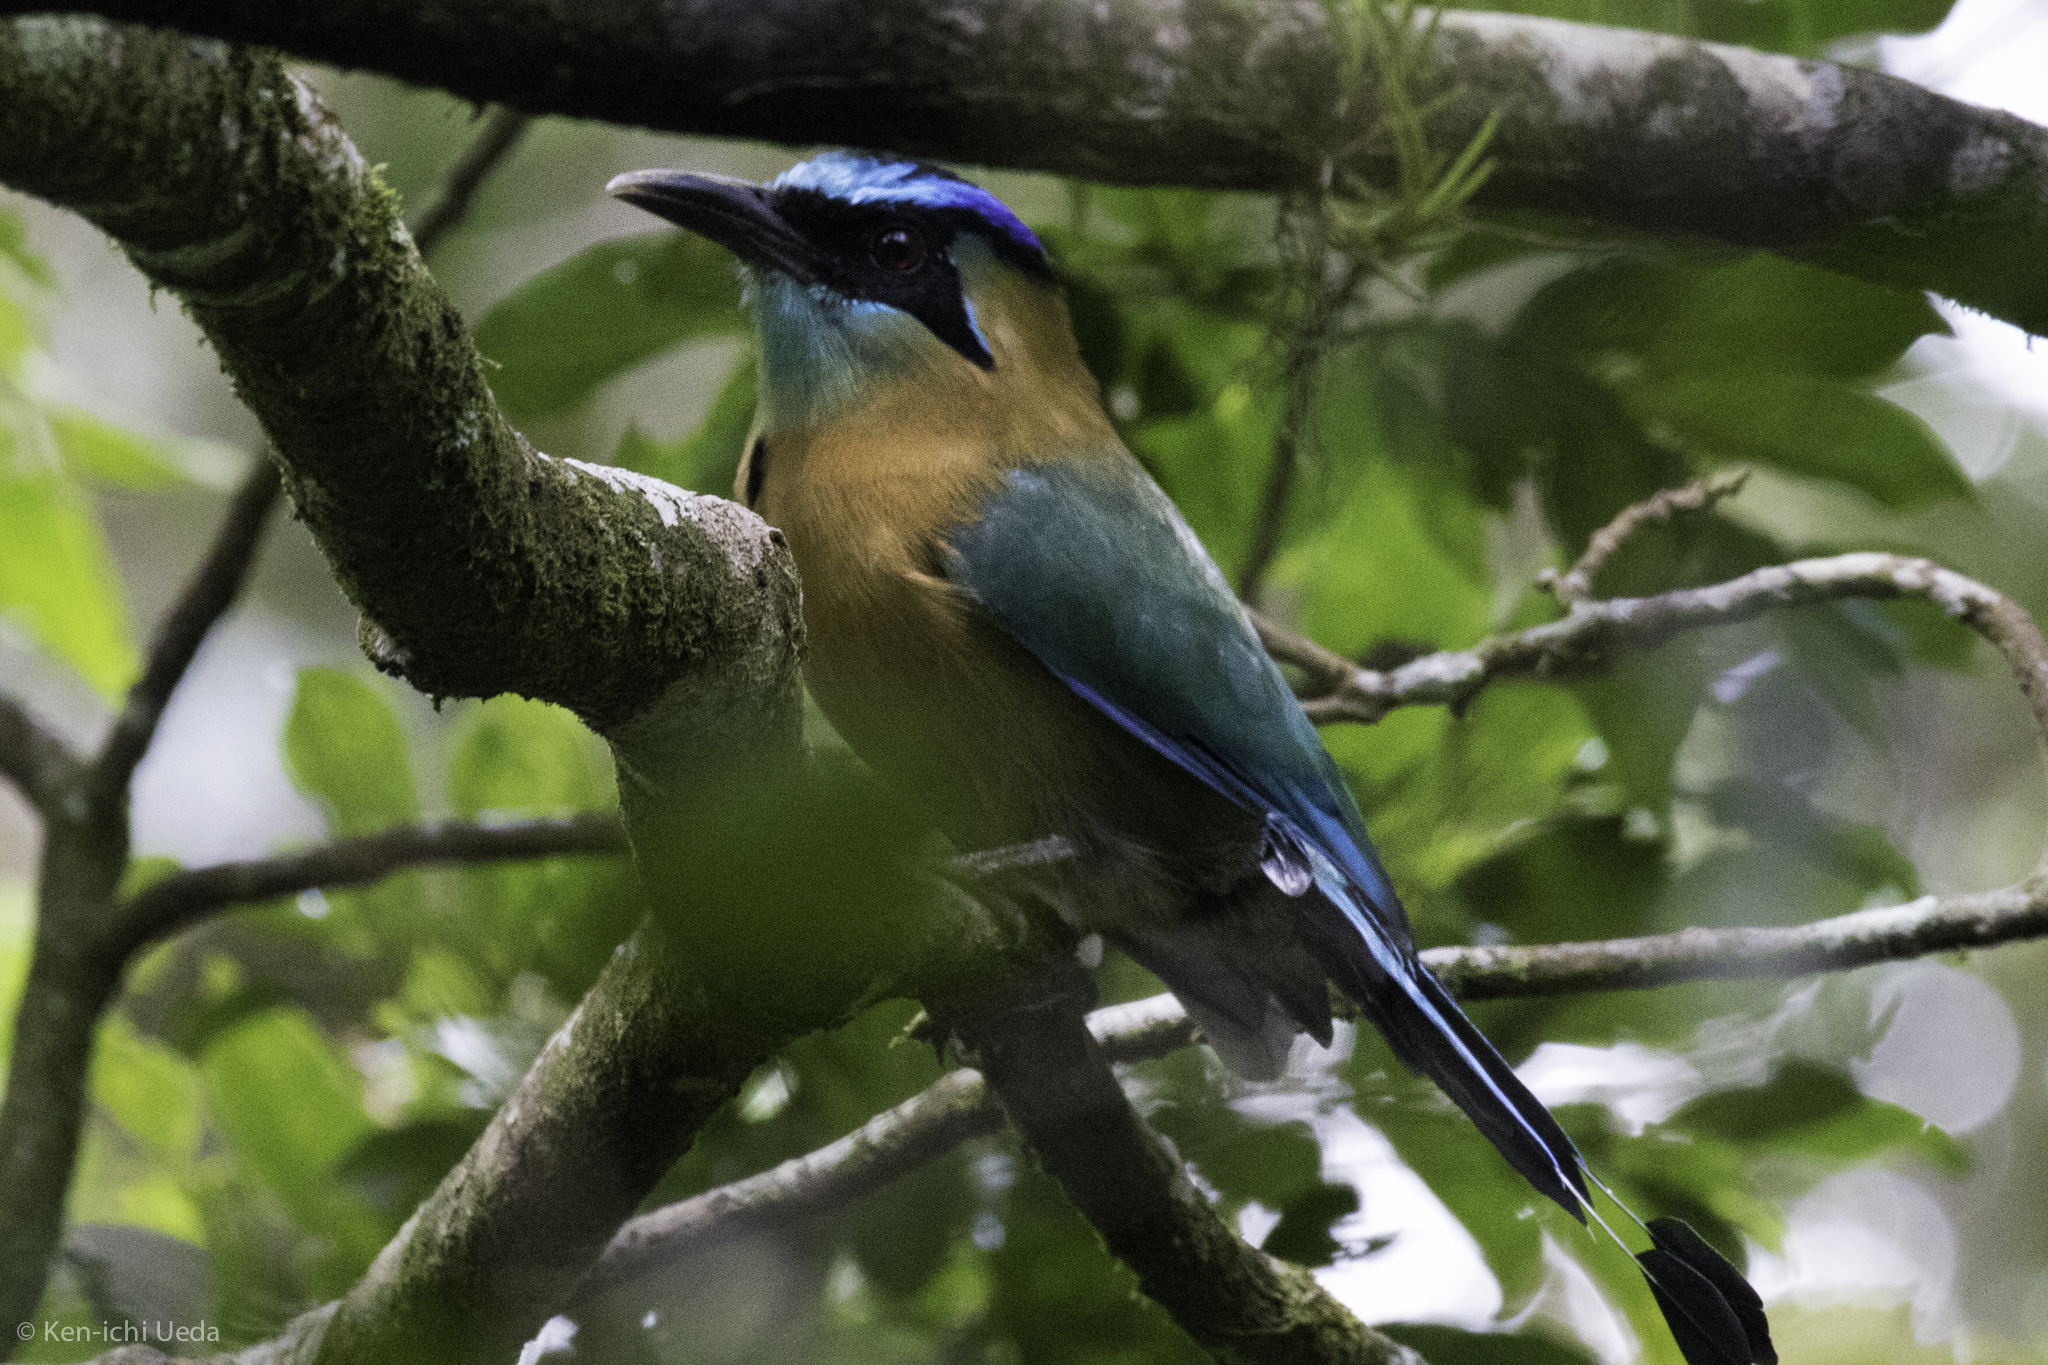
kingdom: Animalia
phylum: Chordata
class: Aves
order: Coraciiformes
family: Momotidae
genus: Momotus
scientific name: Momotus lessonii
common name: Lesson's motmot
